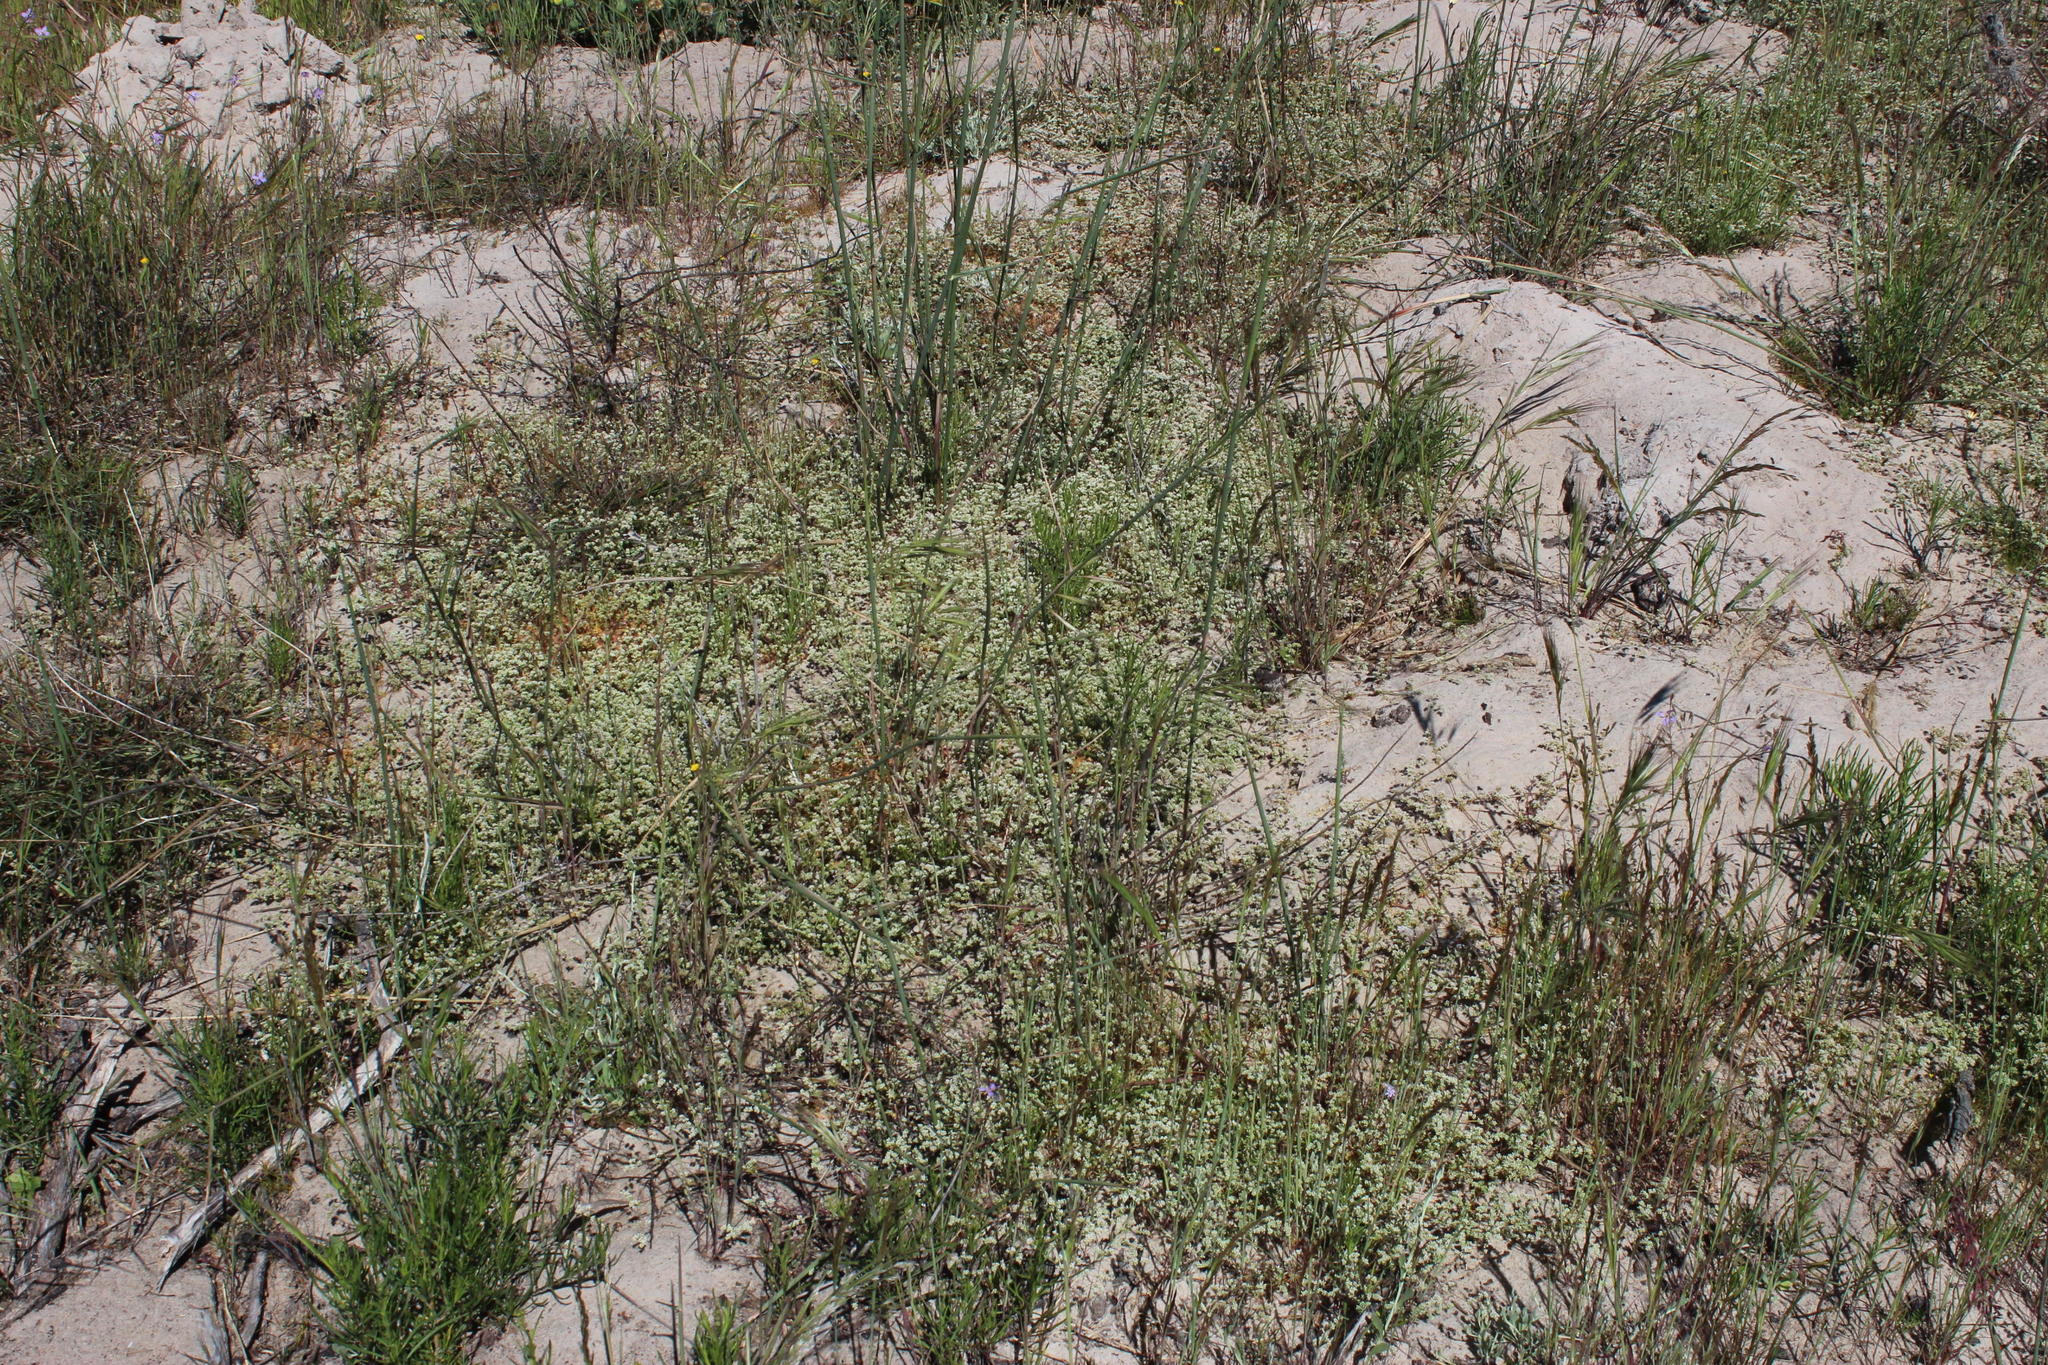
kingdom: Plantae
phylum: Tracheophyta
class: Magnoliopsida
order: Caryophyllales
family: Molluginaceae
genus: Adenogramma
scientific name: Adenogramma glomerata
